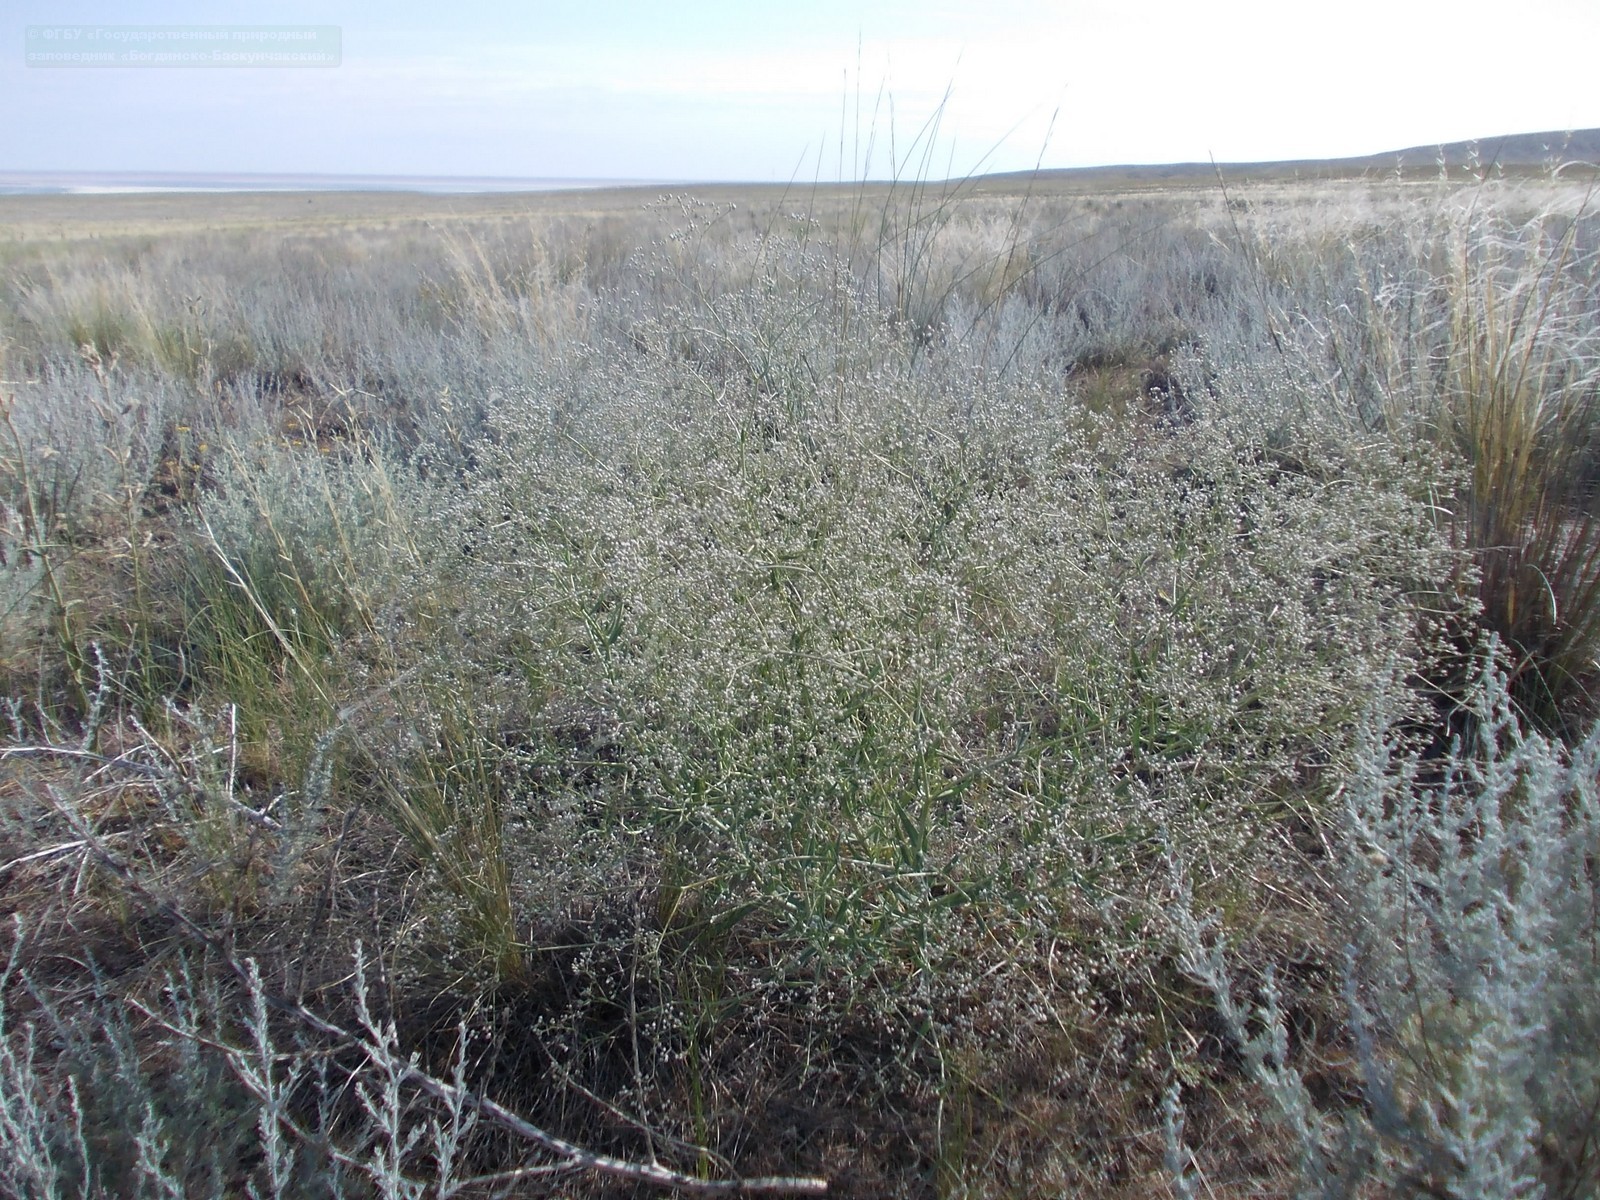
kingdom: Plantae
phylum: Tracheophyta
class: Magnoliopsida
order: Caryophyllales
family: Caryophyllaceae
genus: Gypsophila
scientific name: Gypsophila paniculata
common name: Baby's-breath
